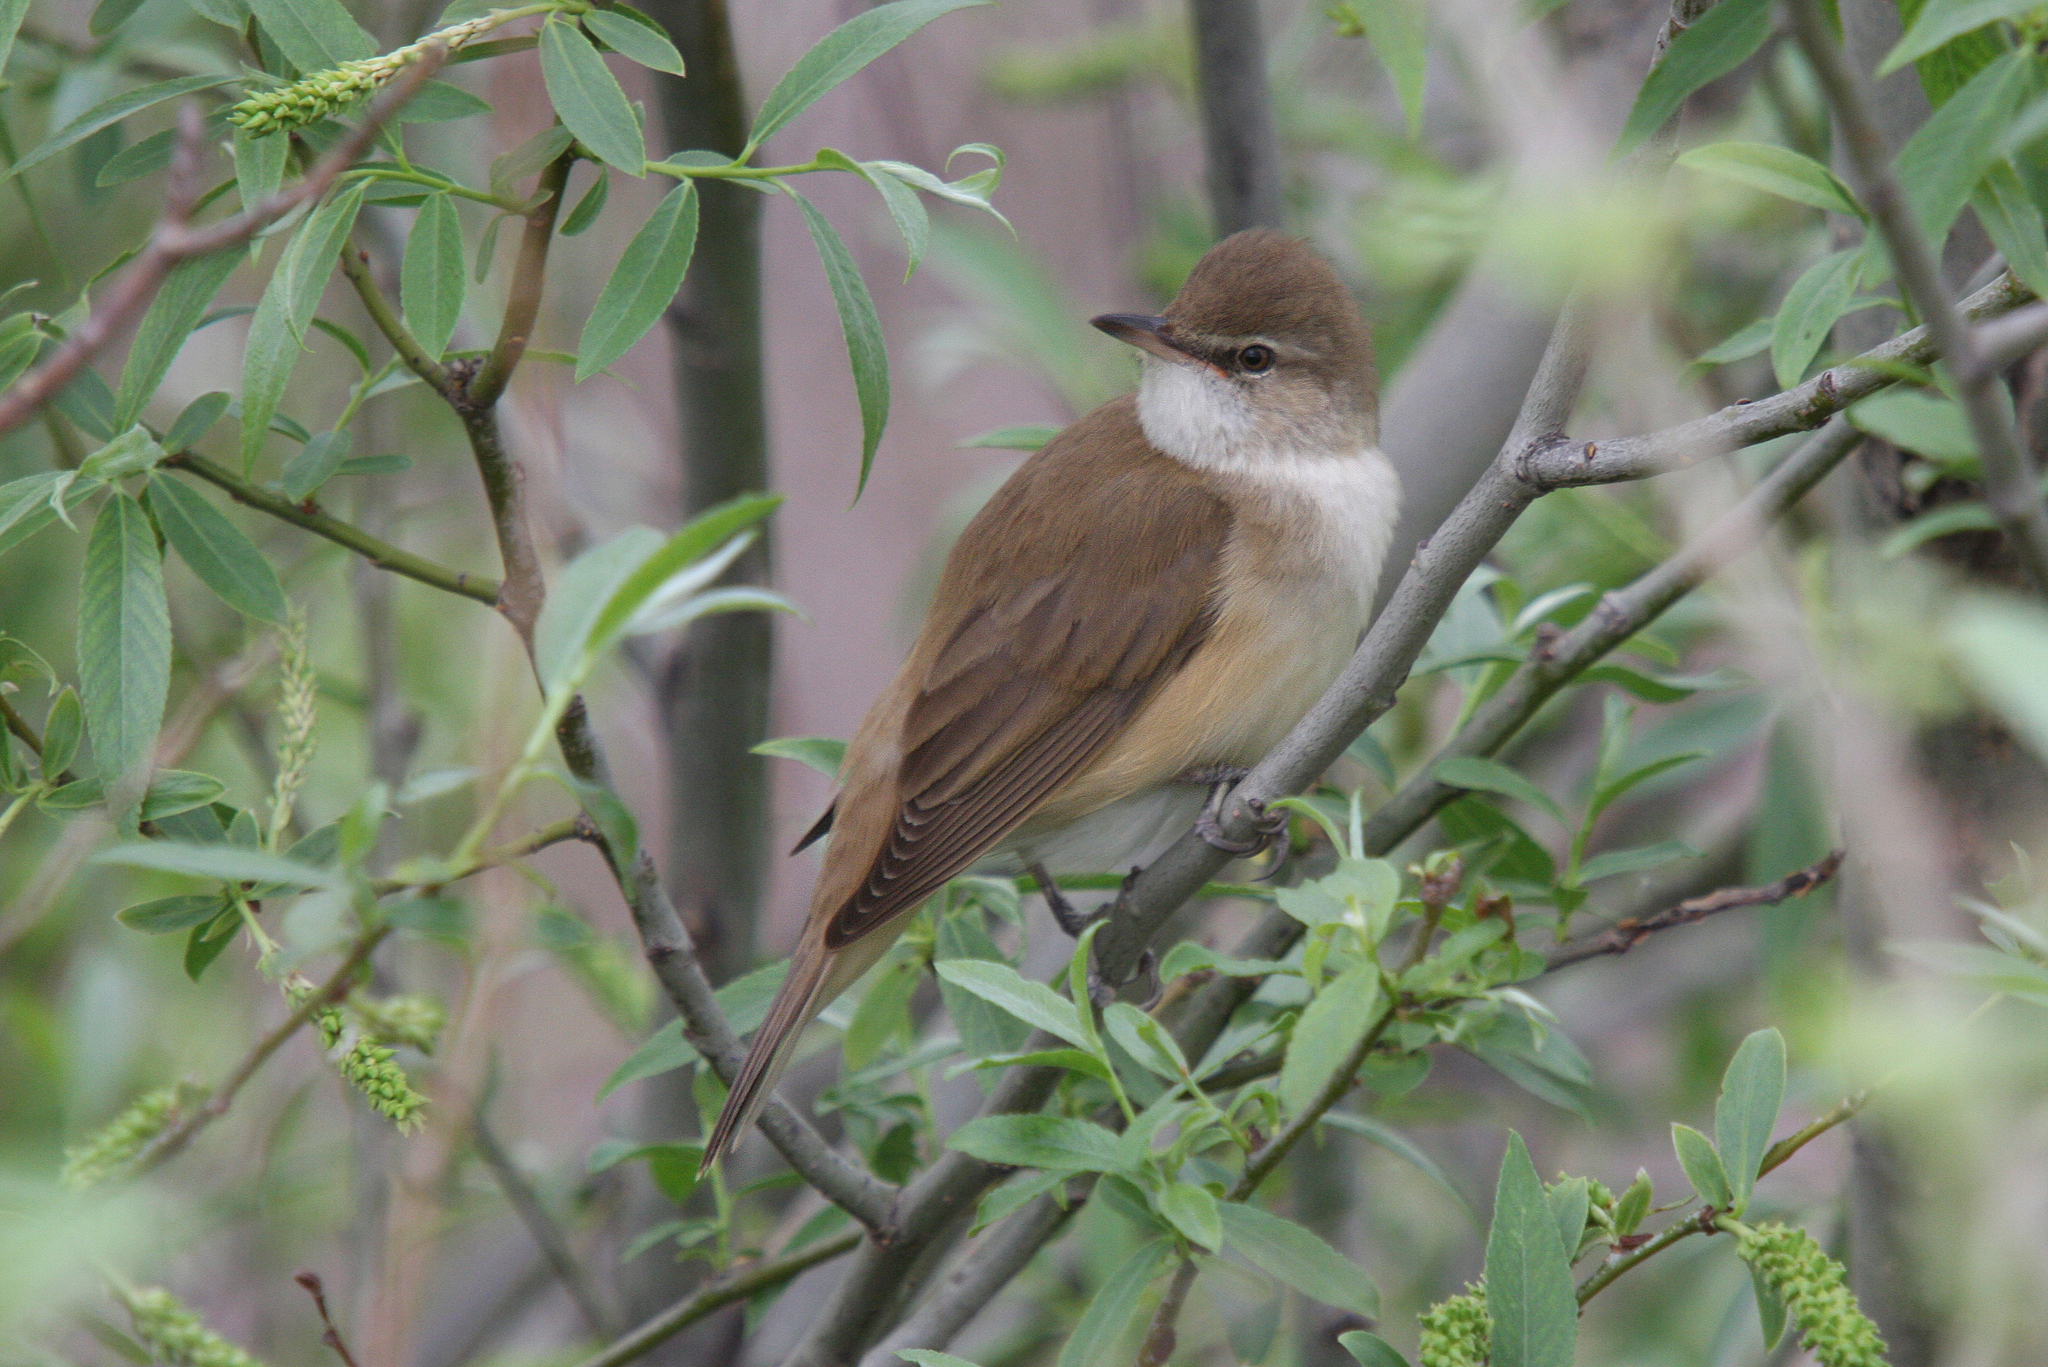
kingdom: Animalia
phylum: Chordata
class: Aves
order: Passeriformes
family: Acrocephalidae
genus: Acrocephalus
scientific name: Acrocephalus arundinaceus
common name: Great reed warbler
